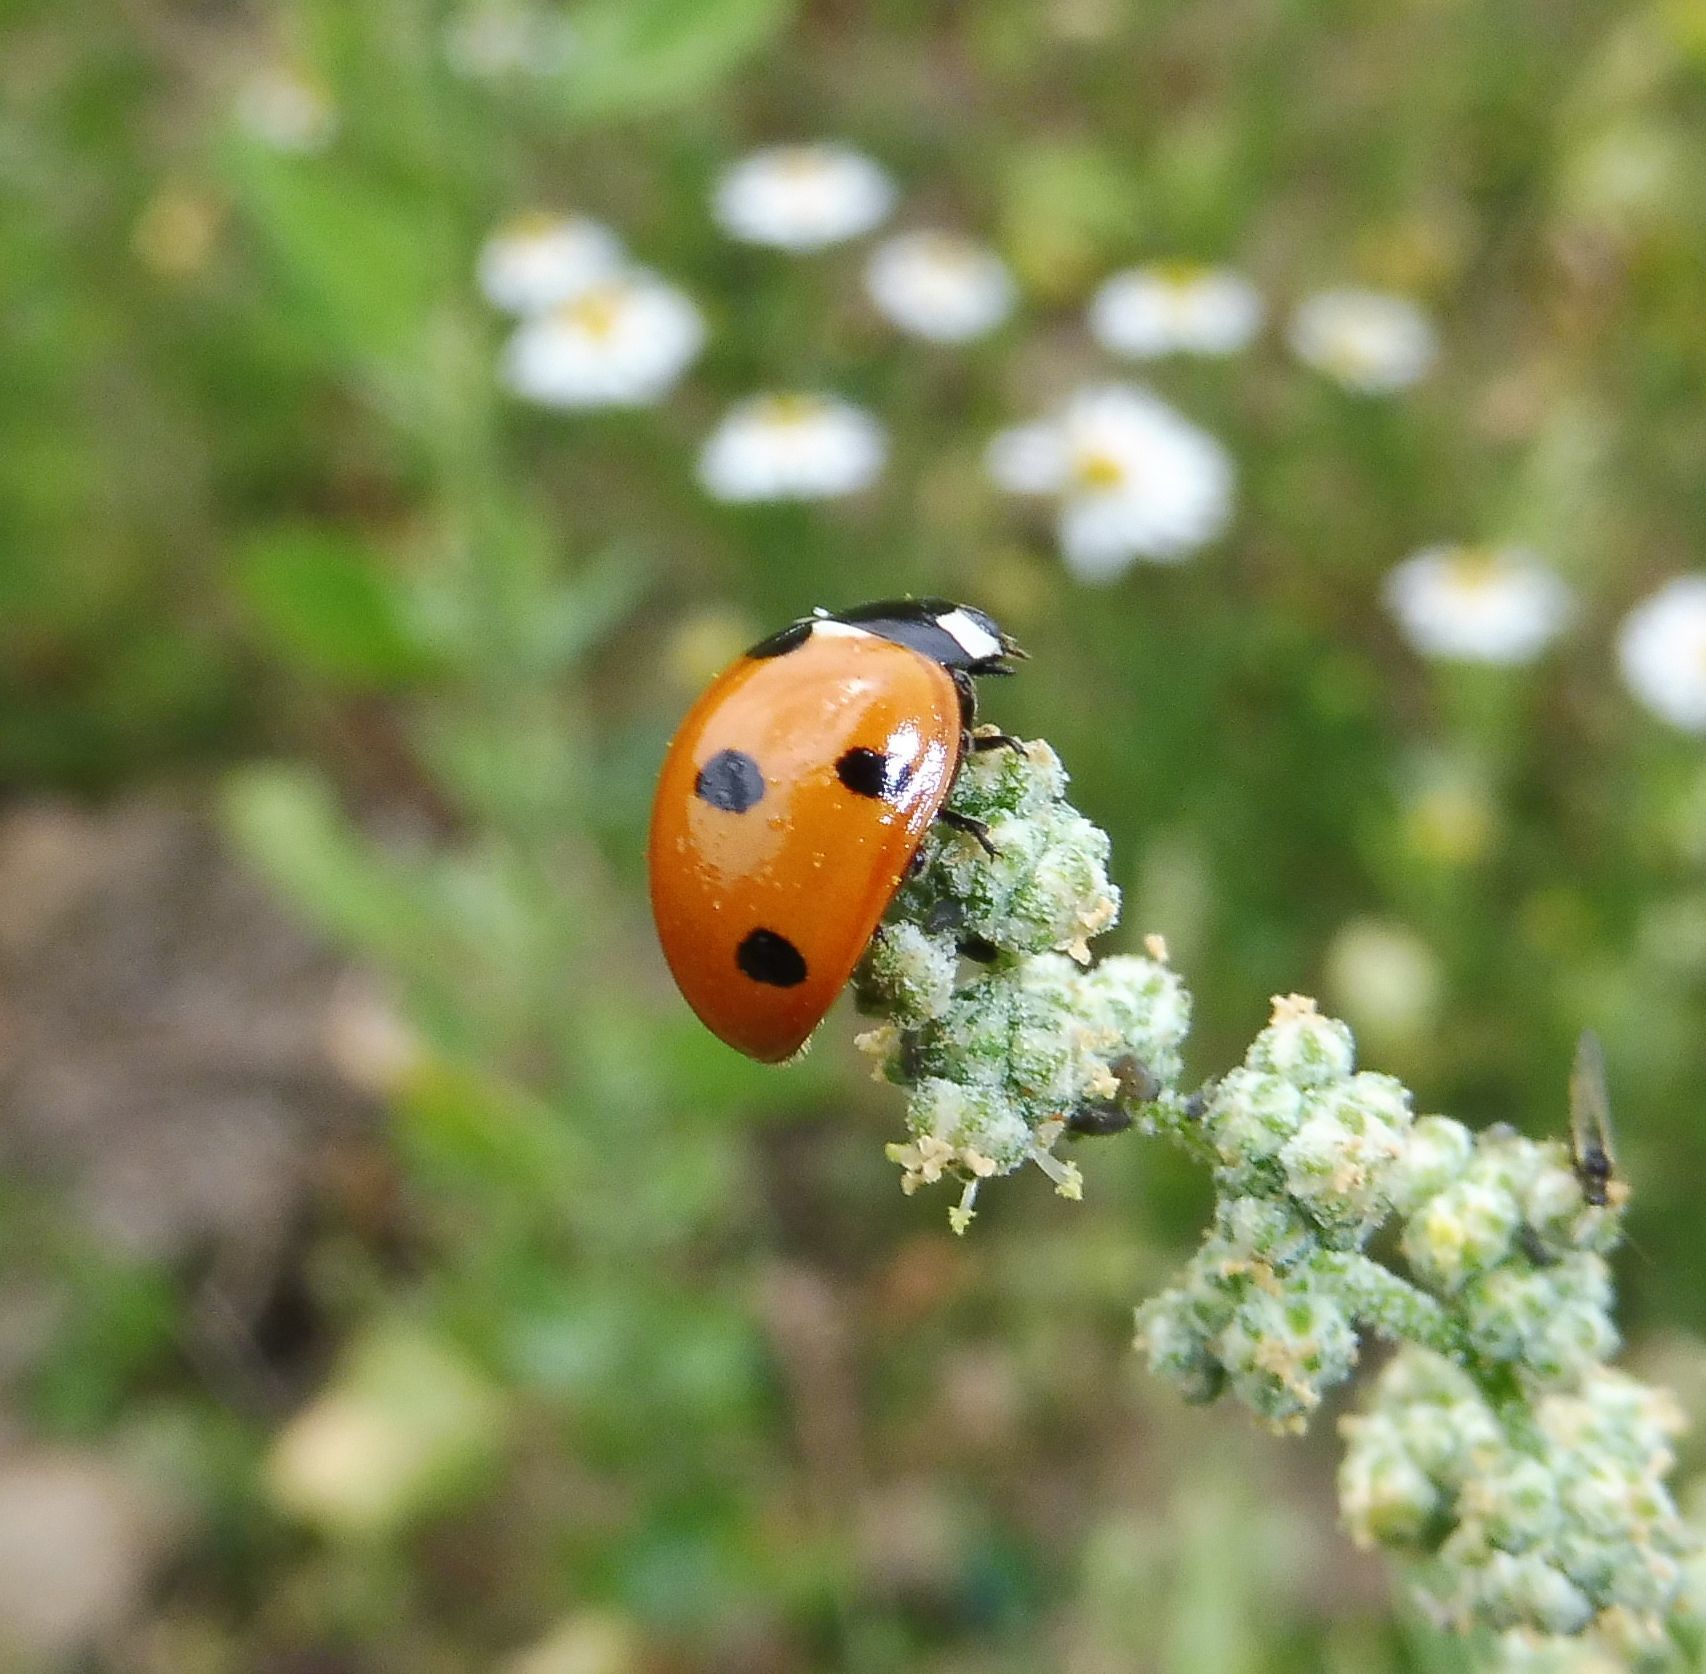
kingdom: Animalia
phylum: Arthropoda
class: Insecta
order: Coleoptera
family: Coccinellidae
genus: Coccinella
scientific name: Coccinella septempunctata
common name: Sevenspotted lady beetle
